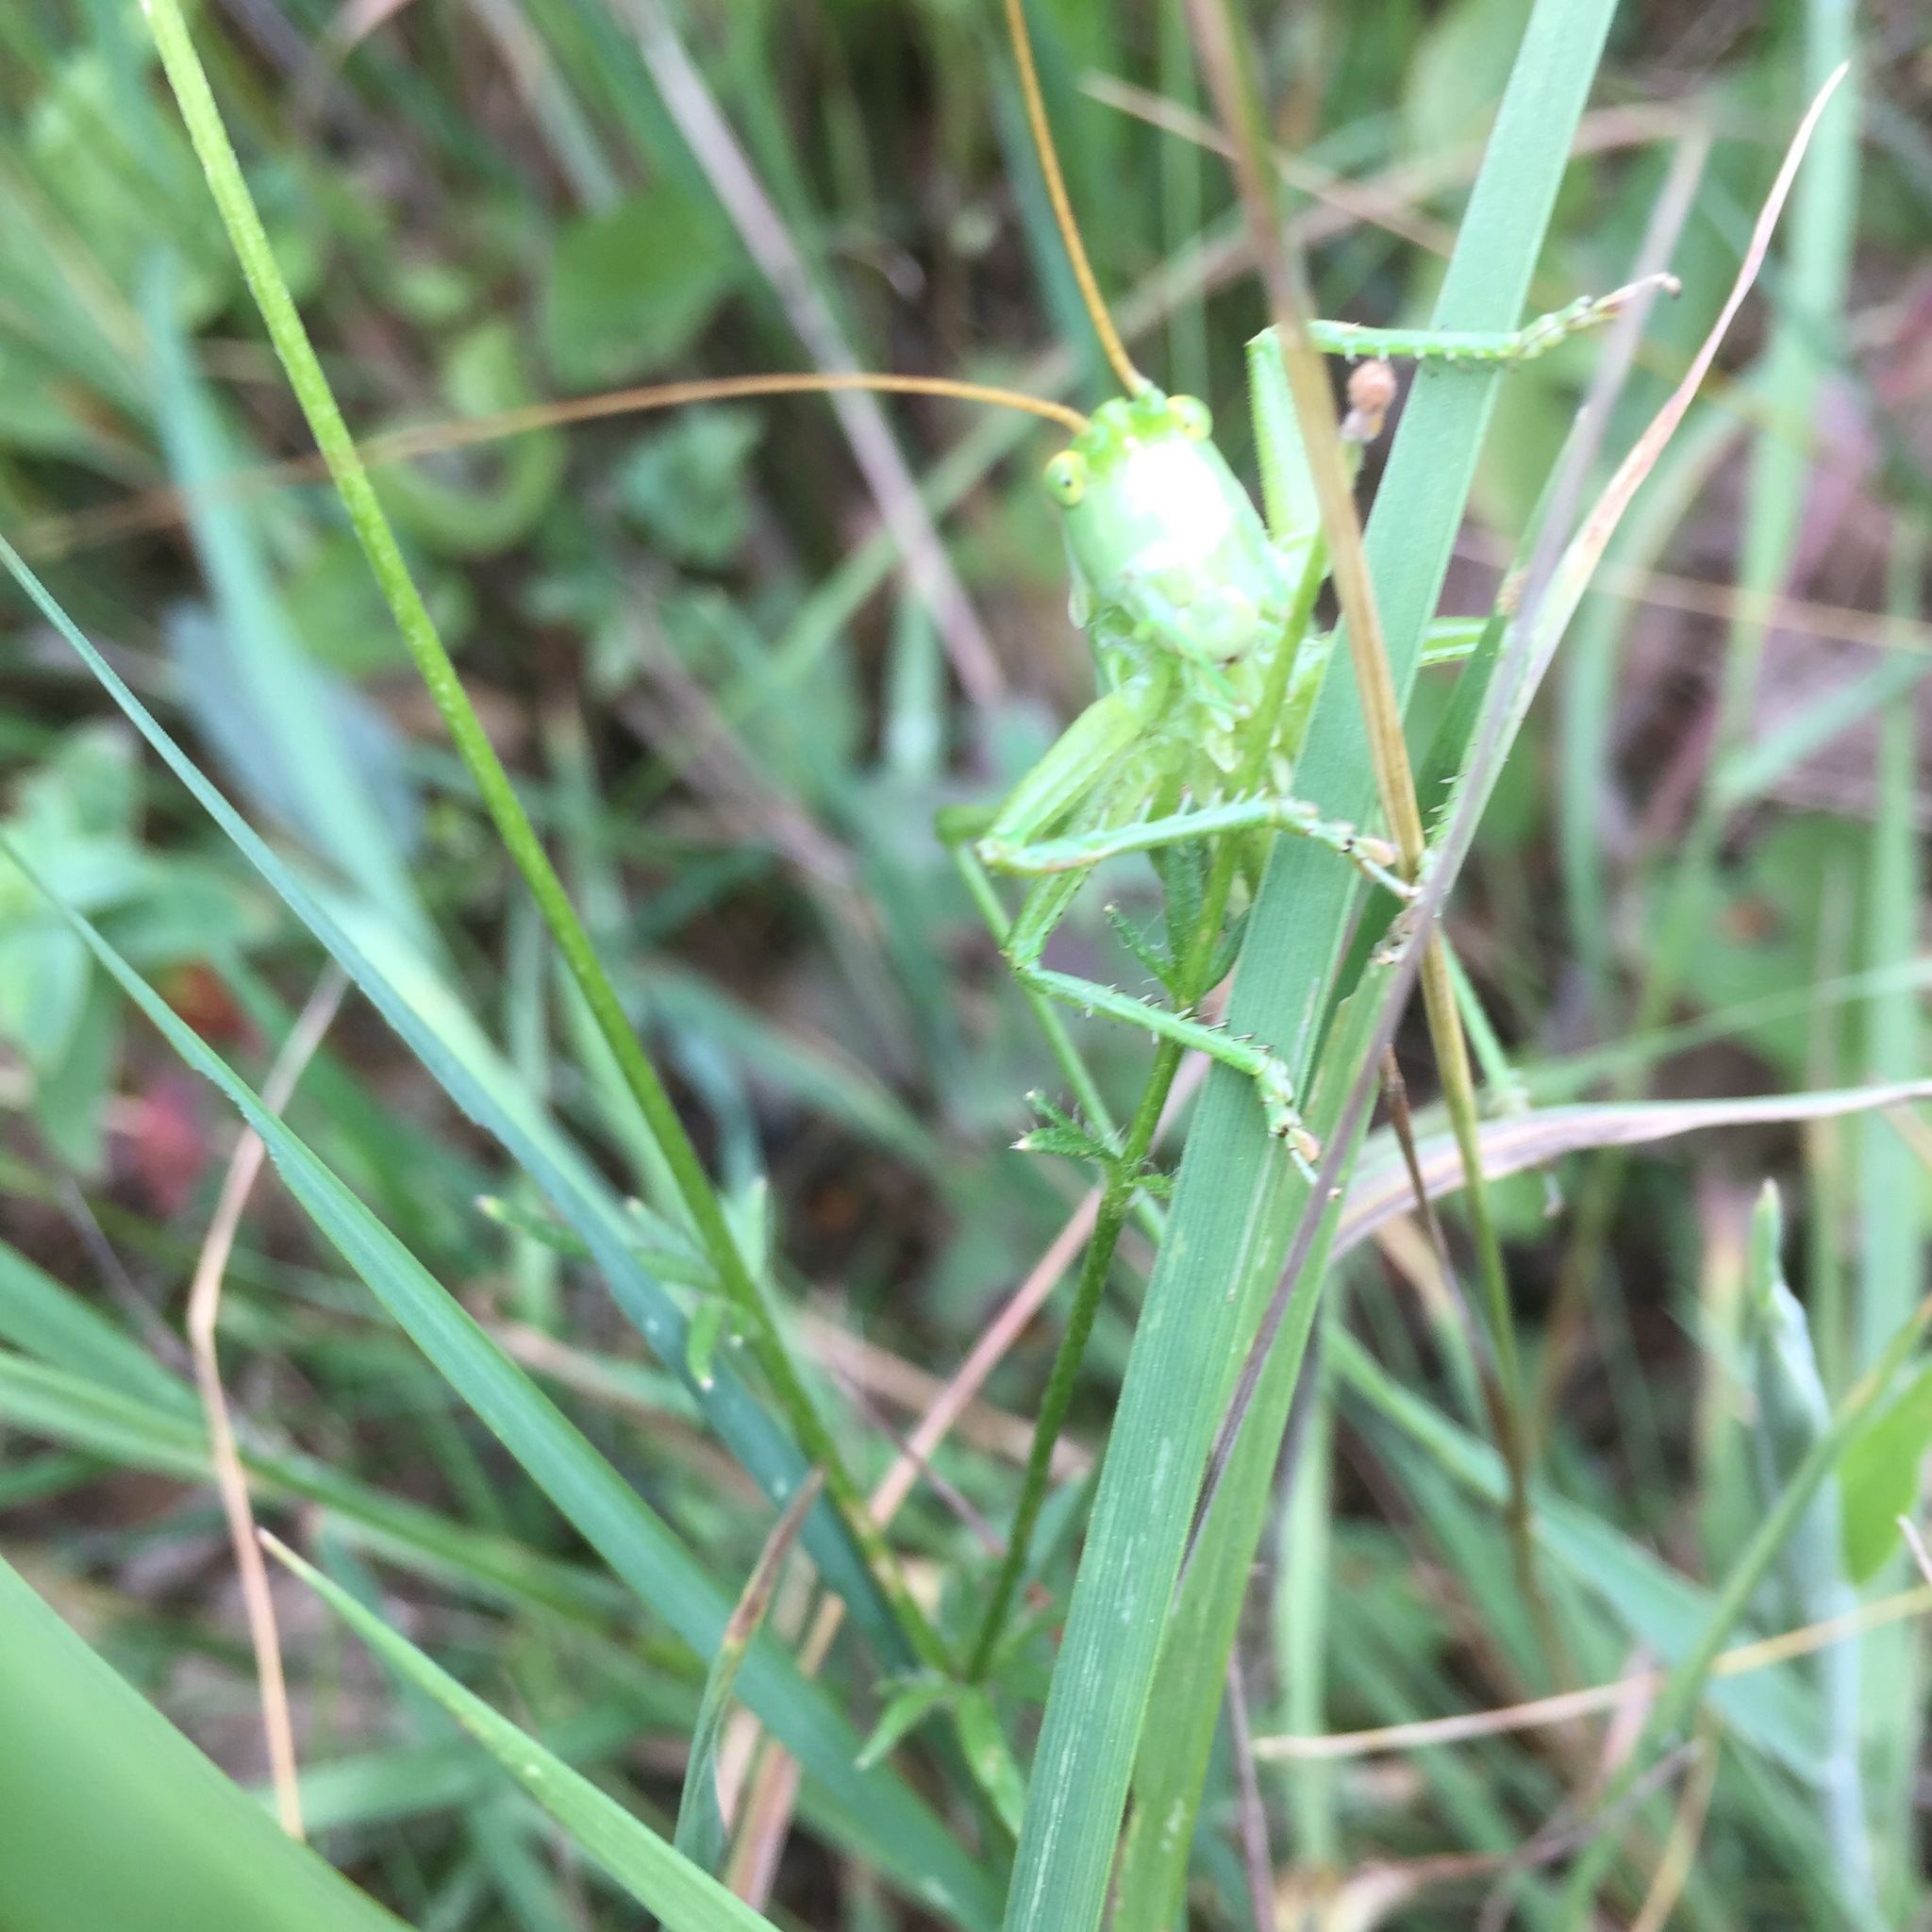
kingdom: Animalia
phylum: Arthropoda
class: Insecta
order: Orthoptera
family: Tettigoniidae
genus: Tettigonia
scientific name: Tettigonia viridissima
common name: Great green bush-cricket
